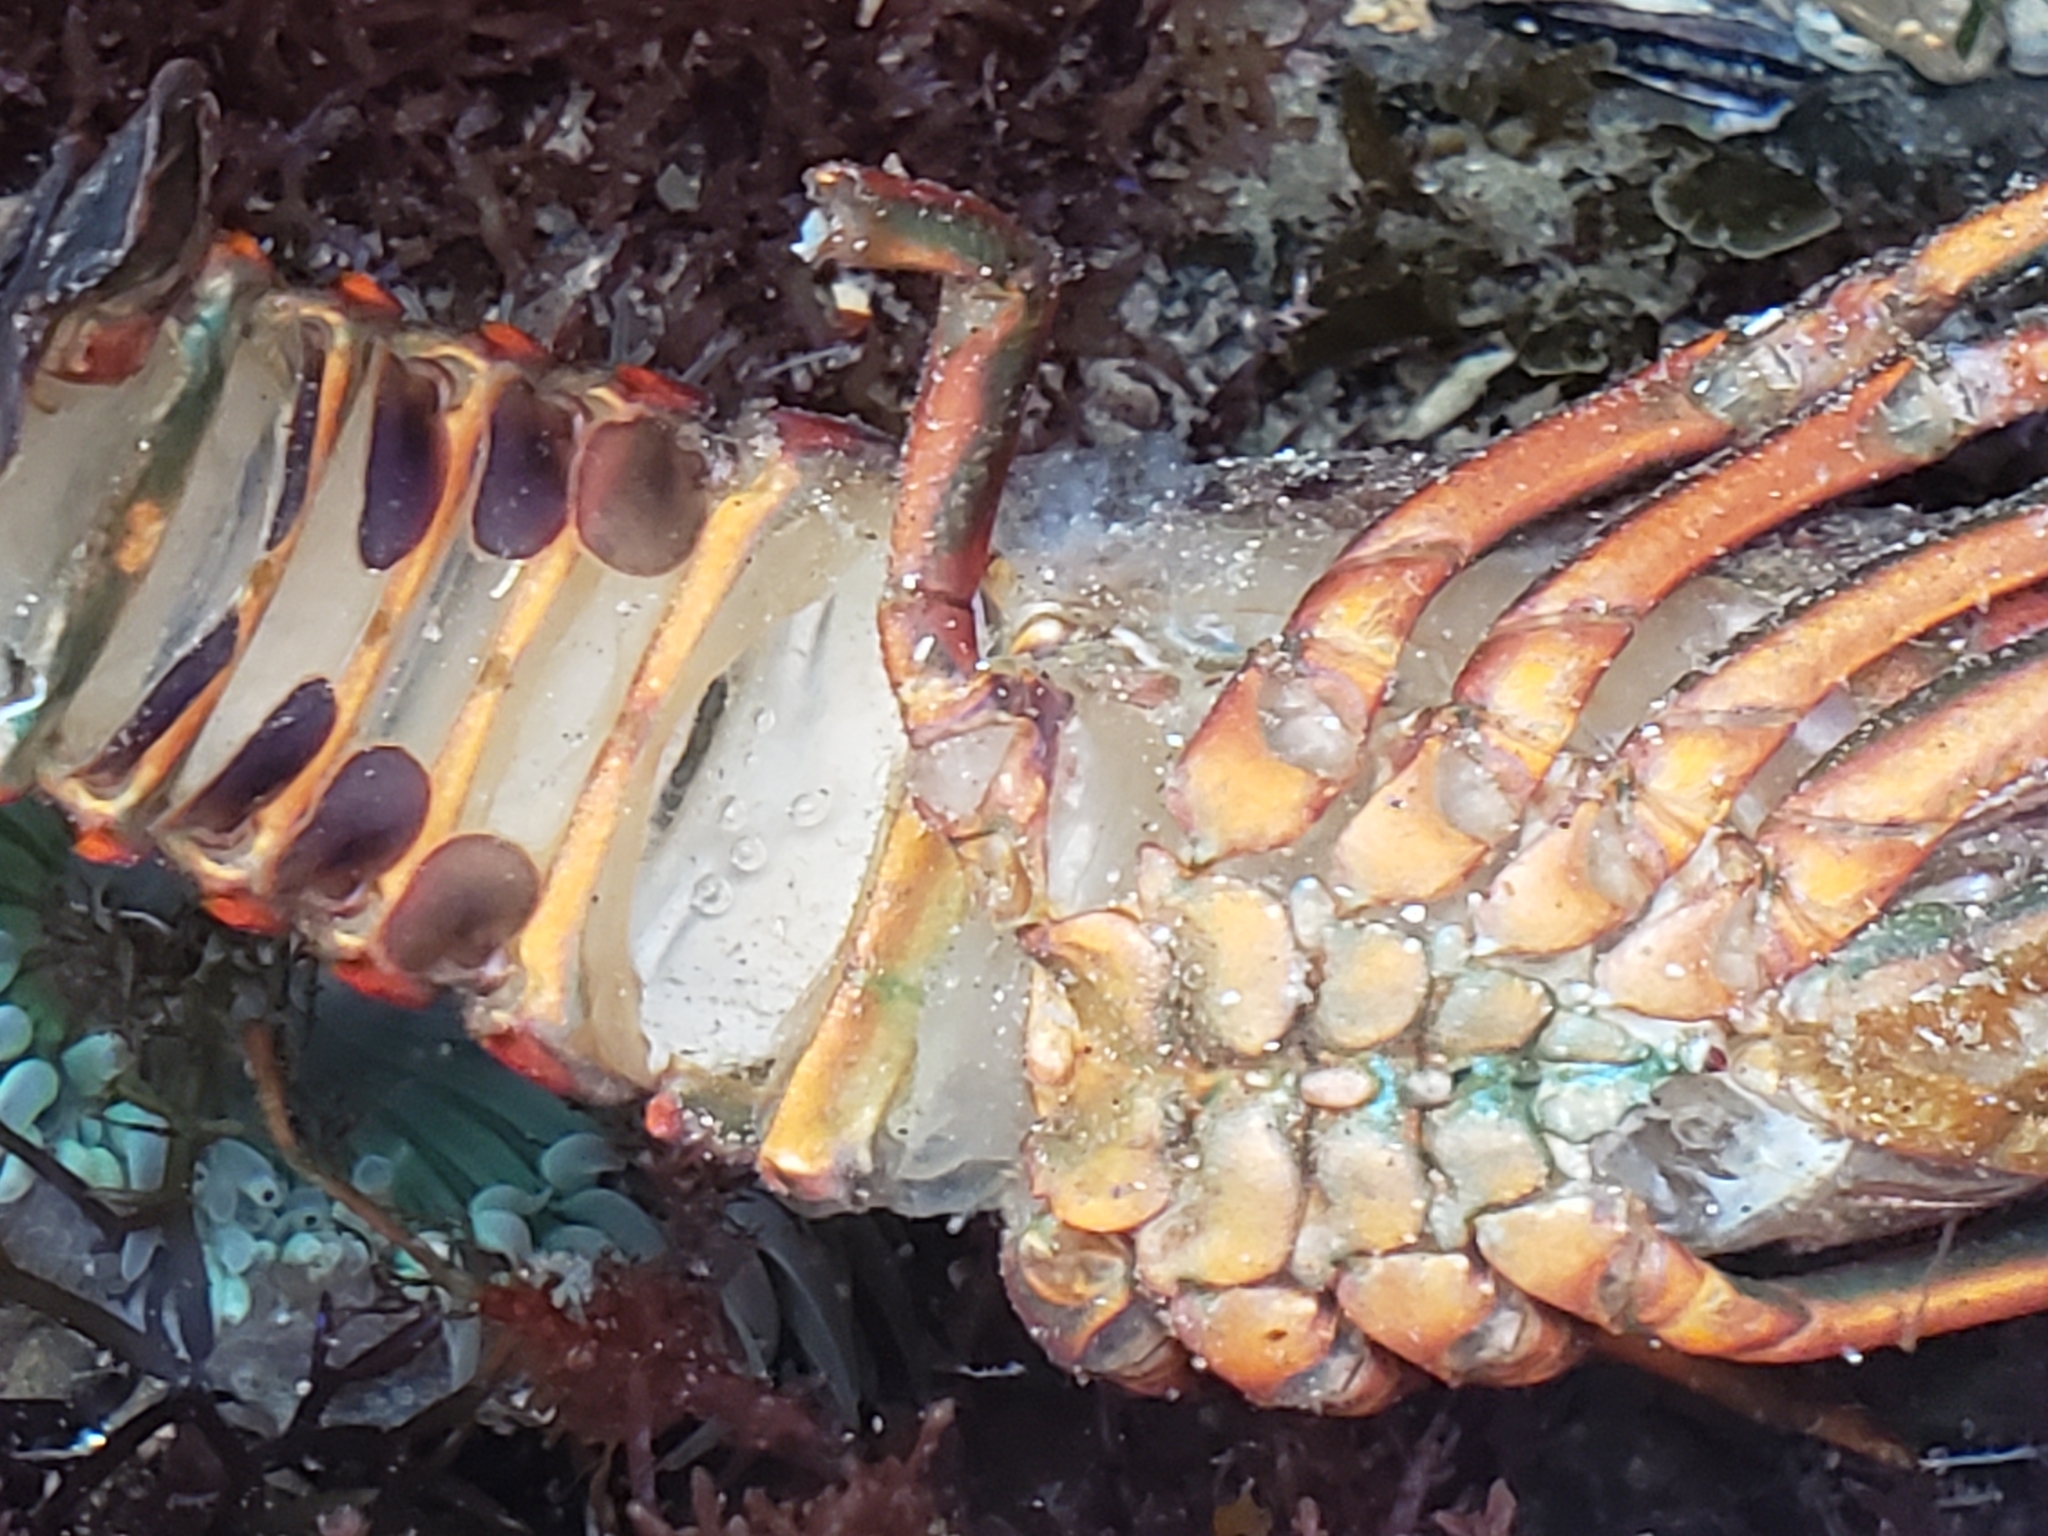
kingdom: Animalia
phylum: Arthropoda
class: Malacostraca
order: Decapoda
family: Palinuridae
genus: Panulirus
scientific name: Panulirus interruptus
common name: California spiny lobster
